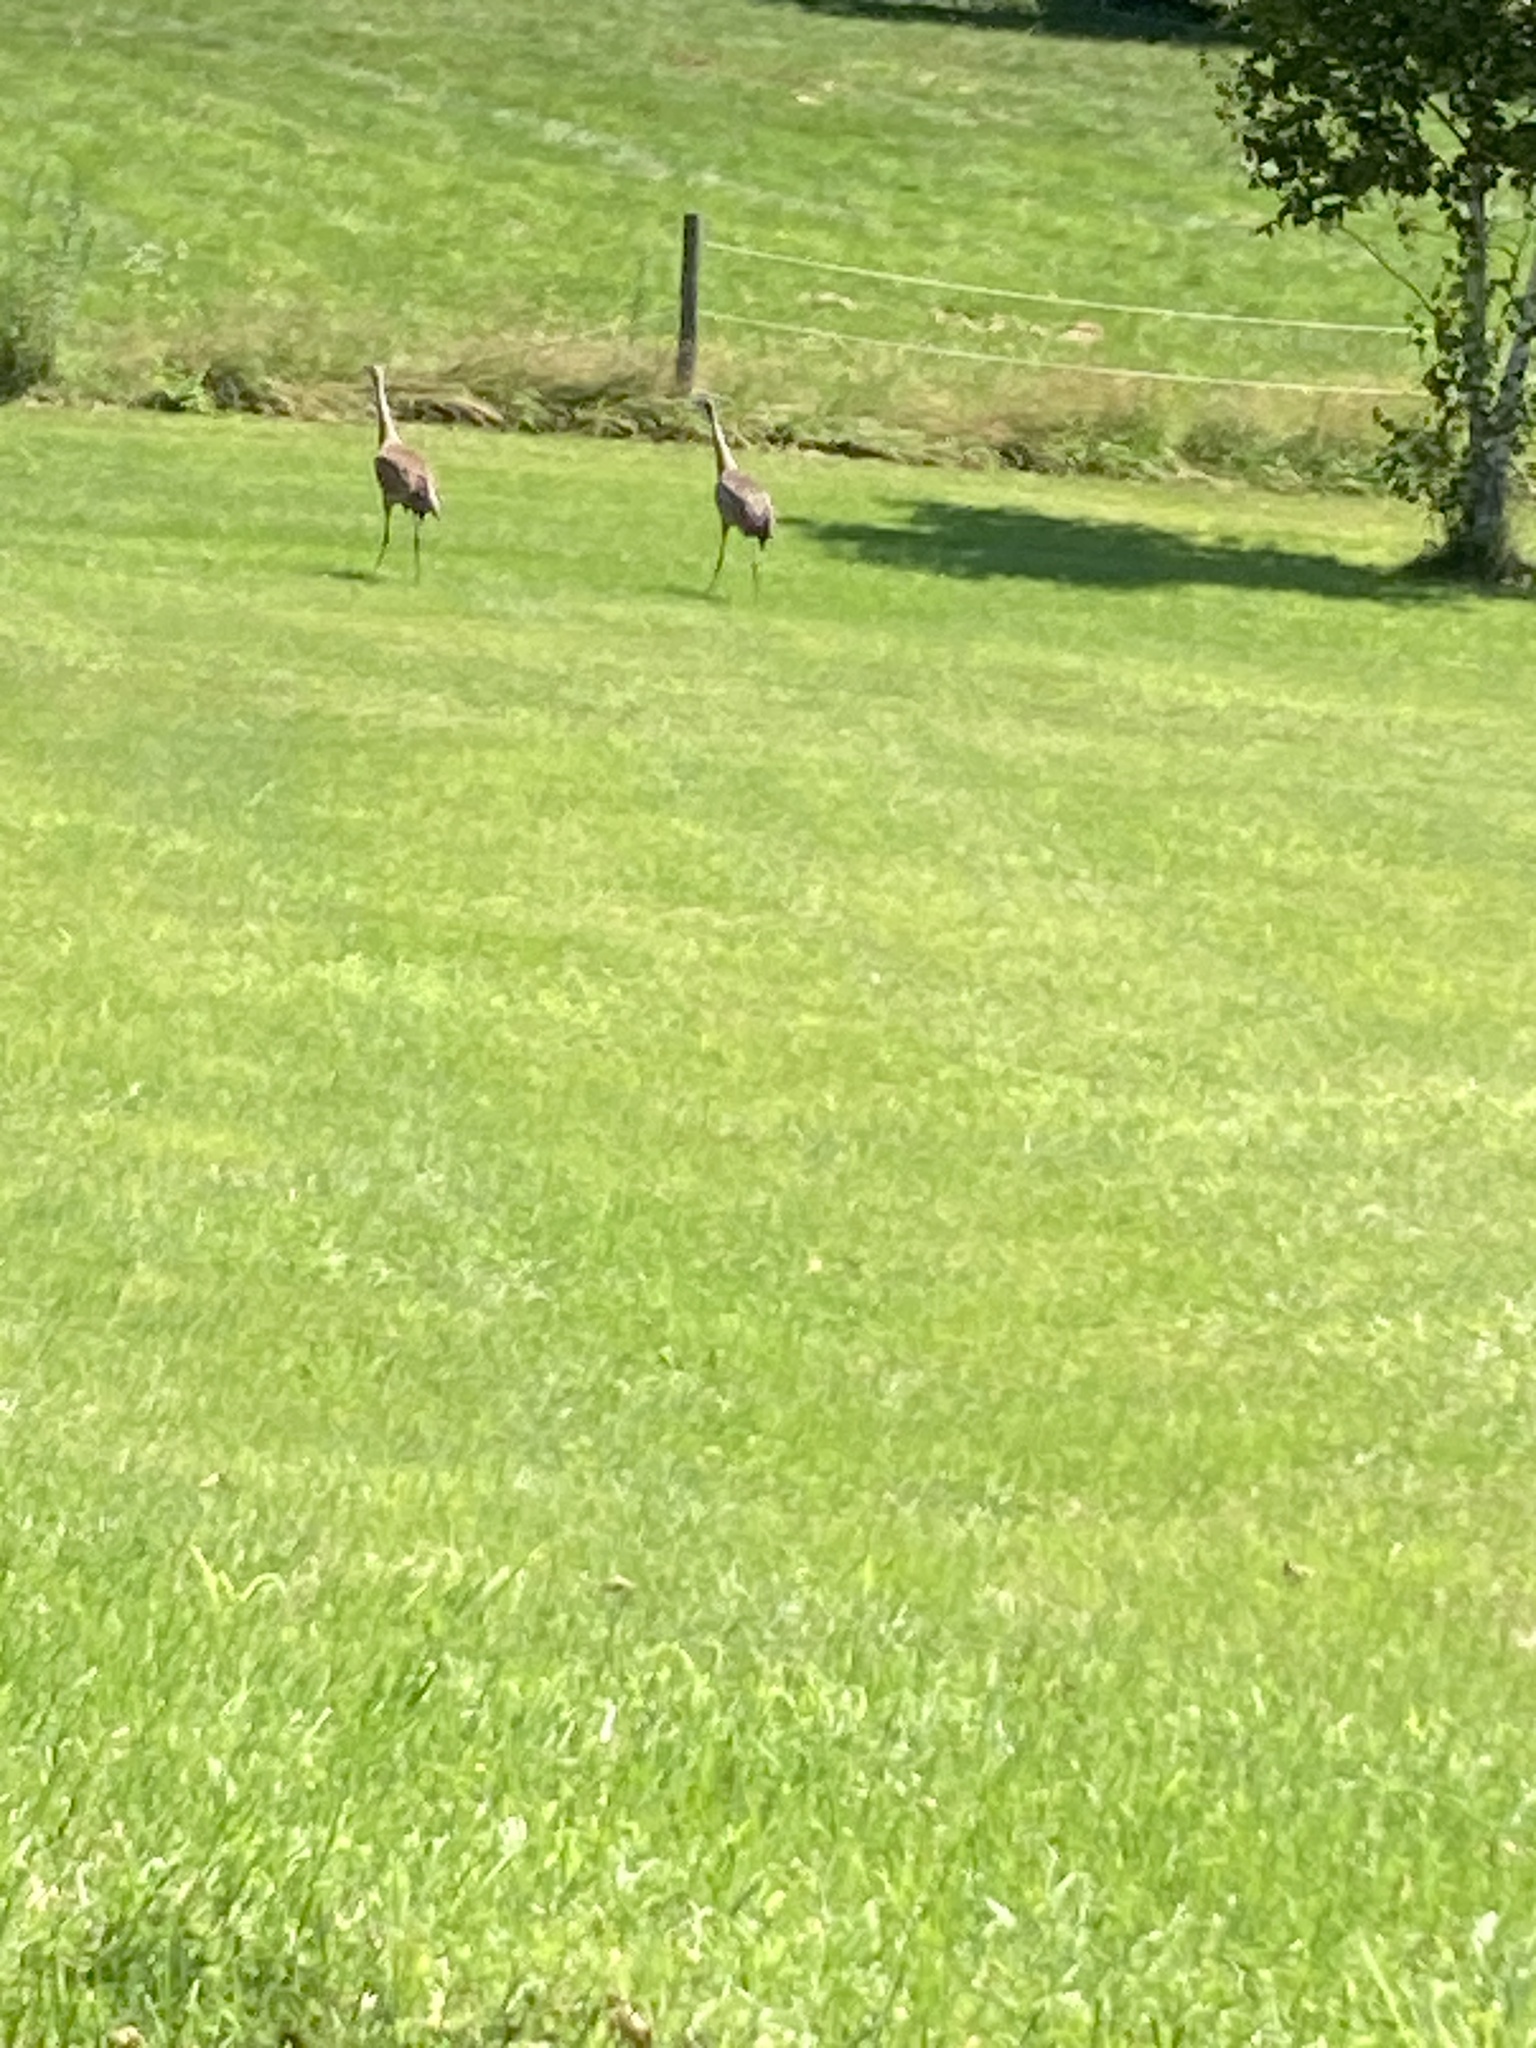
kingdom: Animalia
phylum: Chordata
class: Aves
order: Gruiformes
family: Gruidae
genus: Grus
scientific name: Grus canadensis
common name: Sandhill crane
